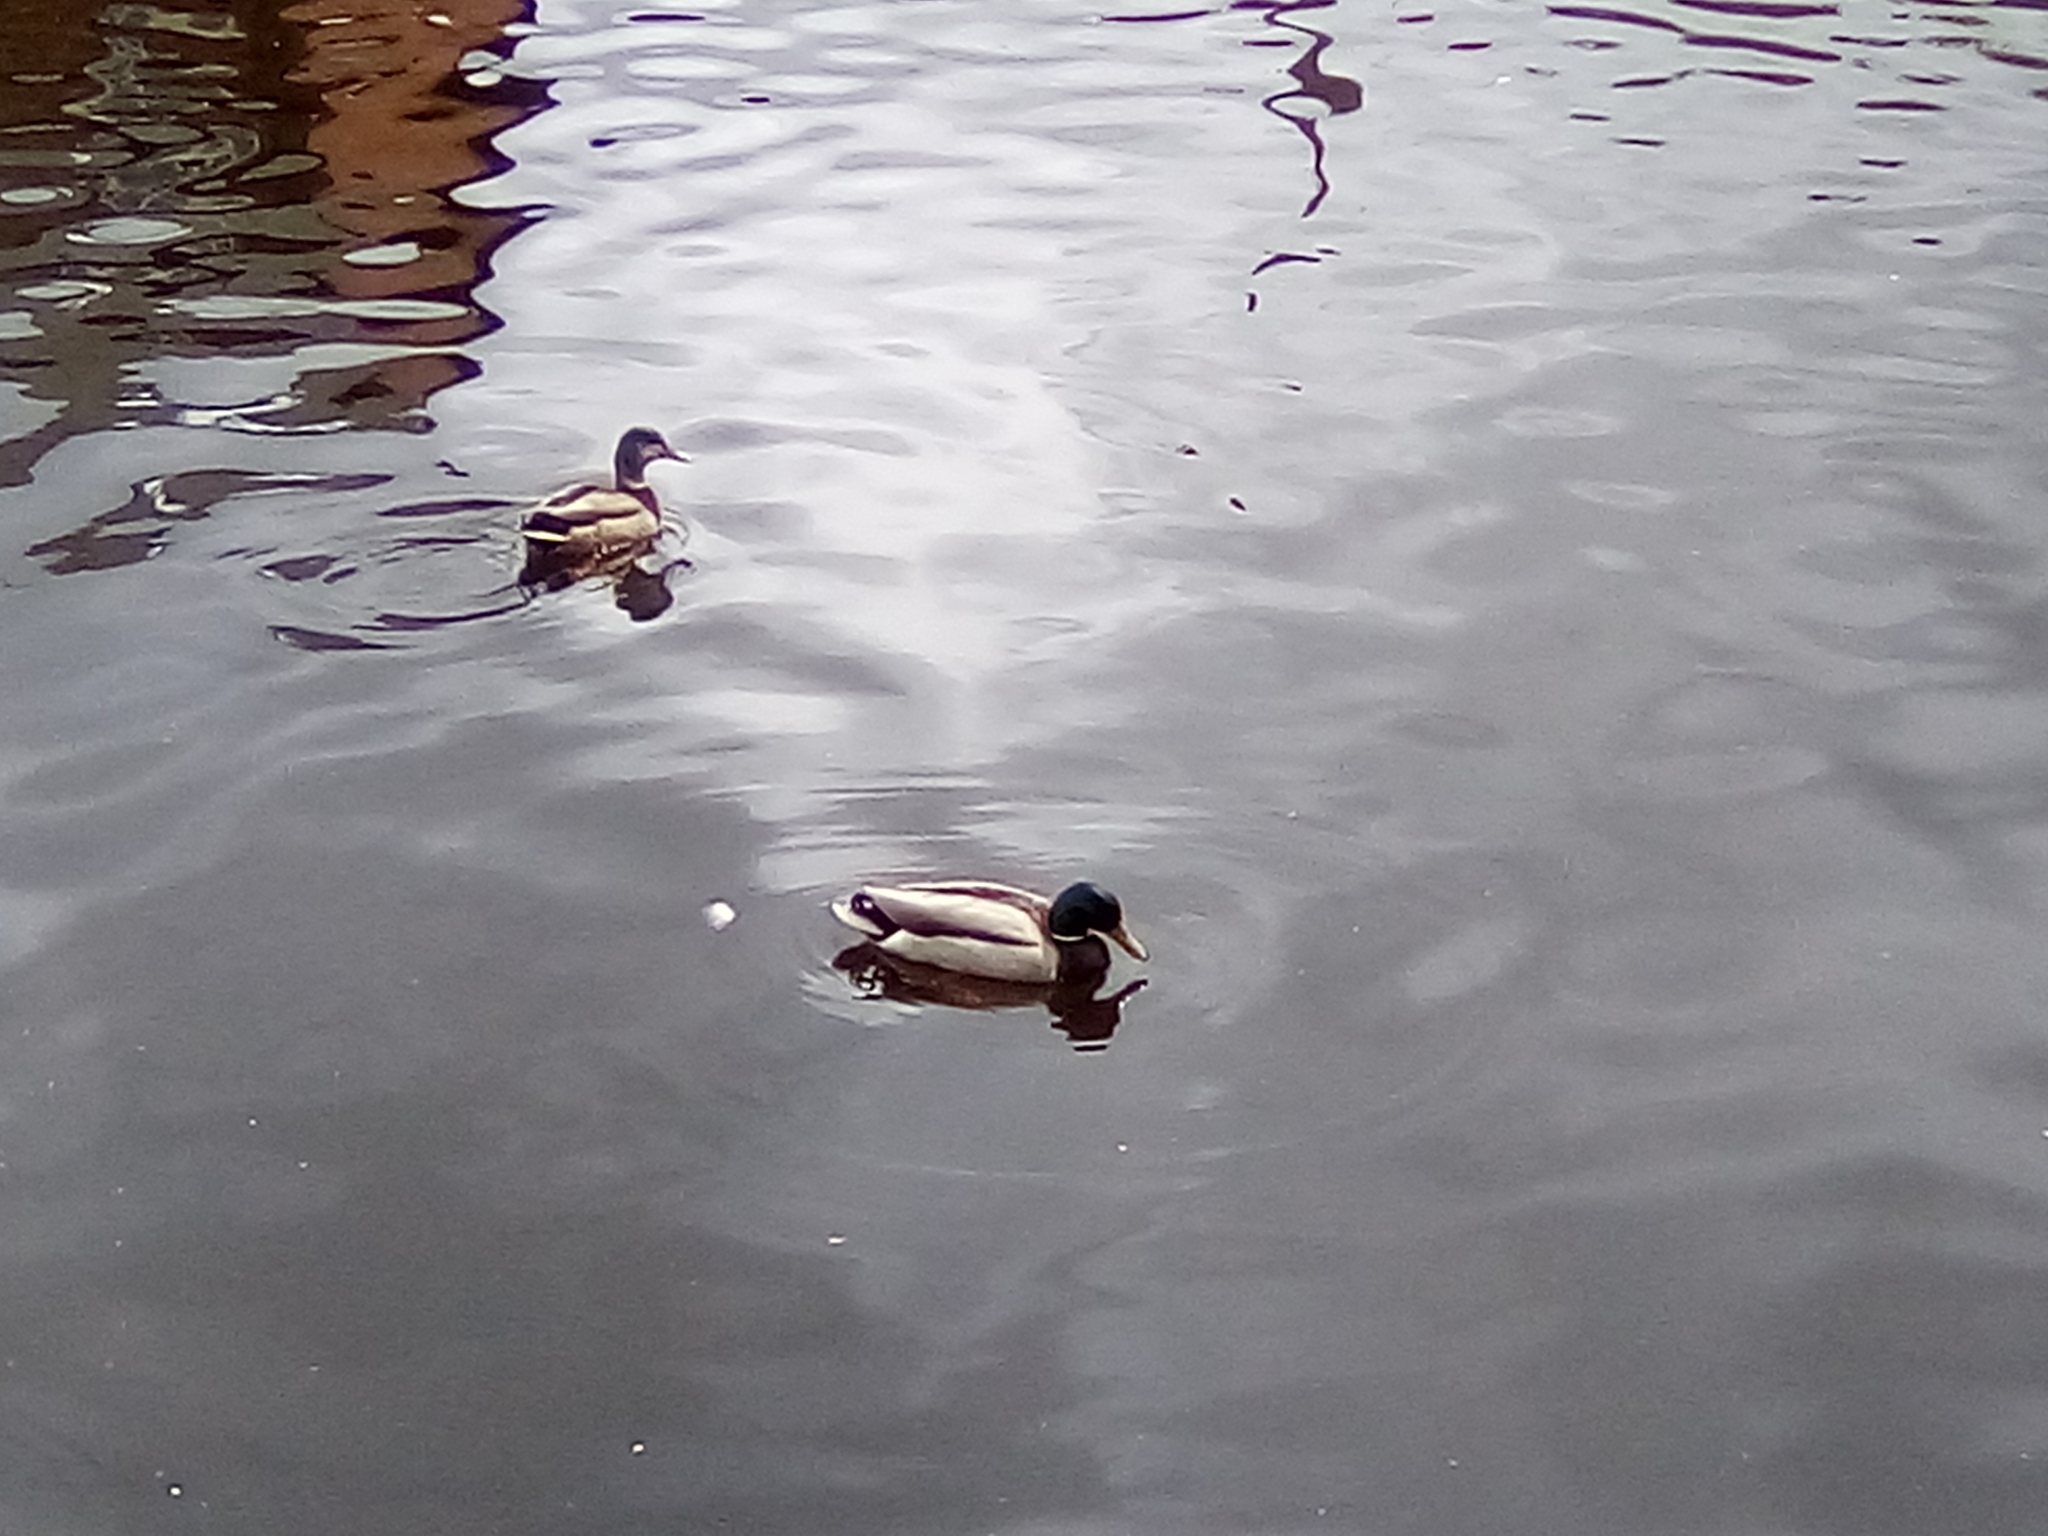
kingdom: Animalia
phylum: Chordata
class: Aves
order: Anseriformes
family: Anatidae
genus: Anas
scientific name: Anas platyrhynchos
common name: Mallard
